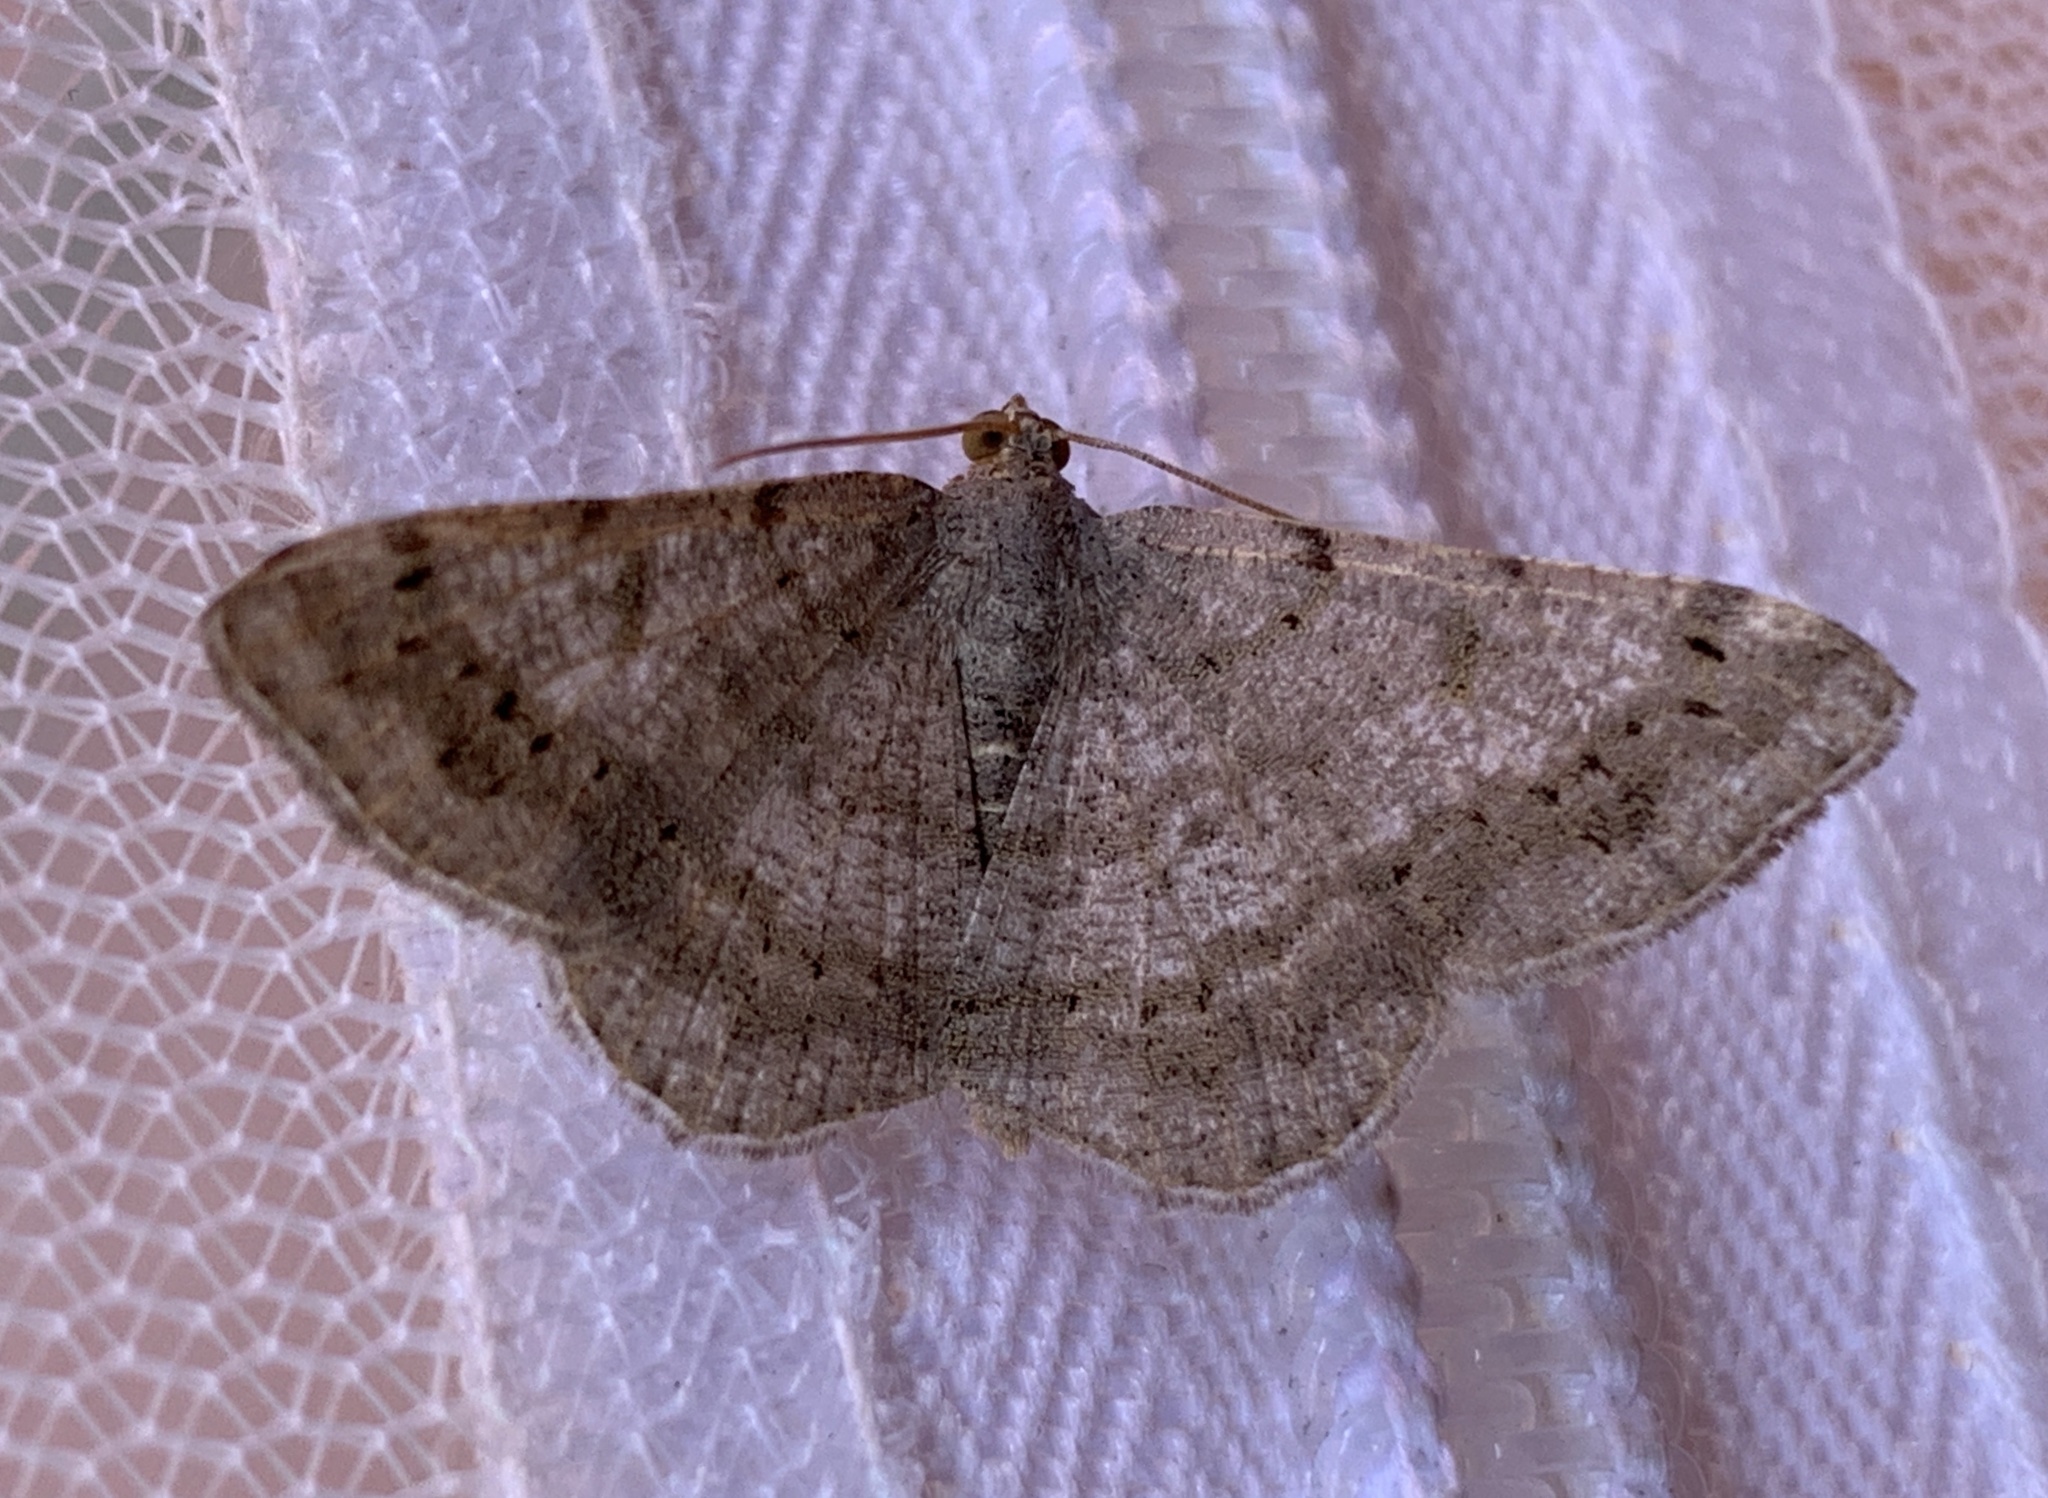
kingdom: Animalia
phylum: Arthropoda
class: Insecta
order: Lepidoptera
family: Geometridae
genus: Digrammia
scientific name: Digrammia ocellinata
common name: Faint-spotted angle
